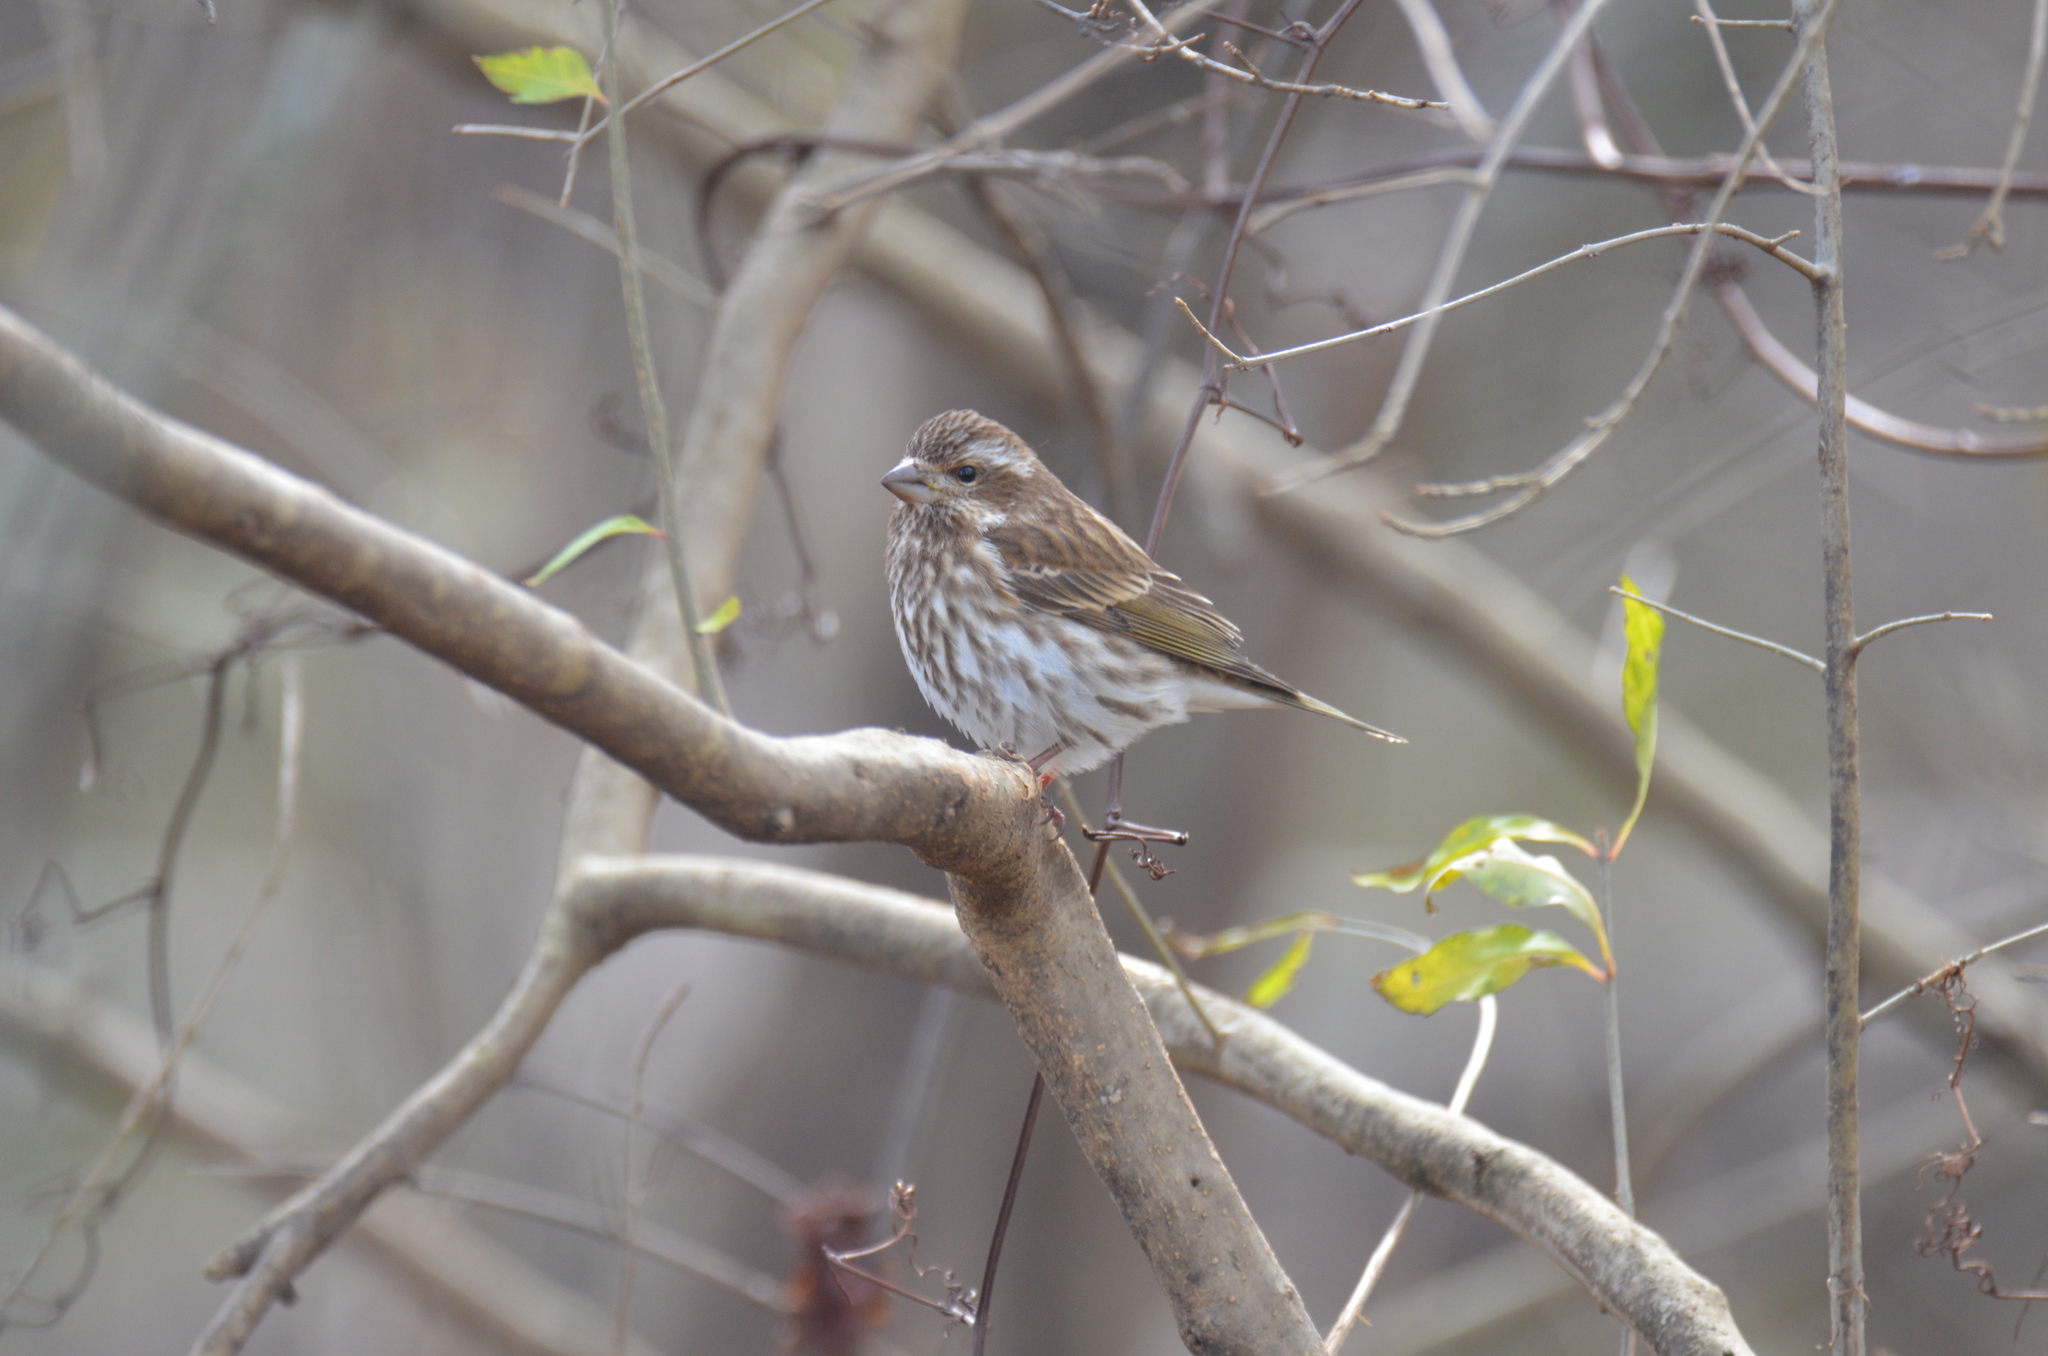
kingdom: Animalia
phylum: Chordata
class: Aves
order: Passeriformes
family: Fringillidae
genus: Haemorhous
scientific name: Haemorhous purpureus
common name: Purple finch
